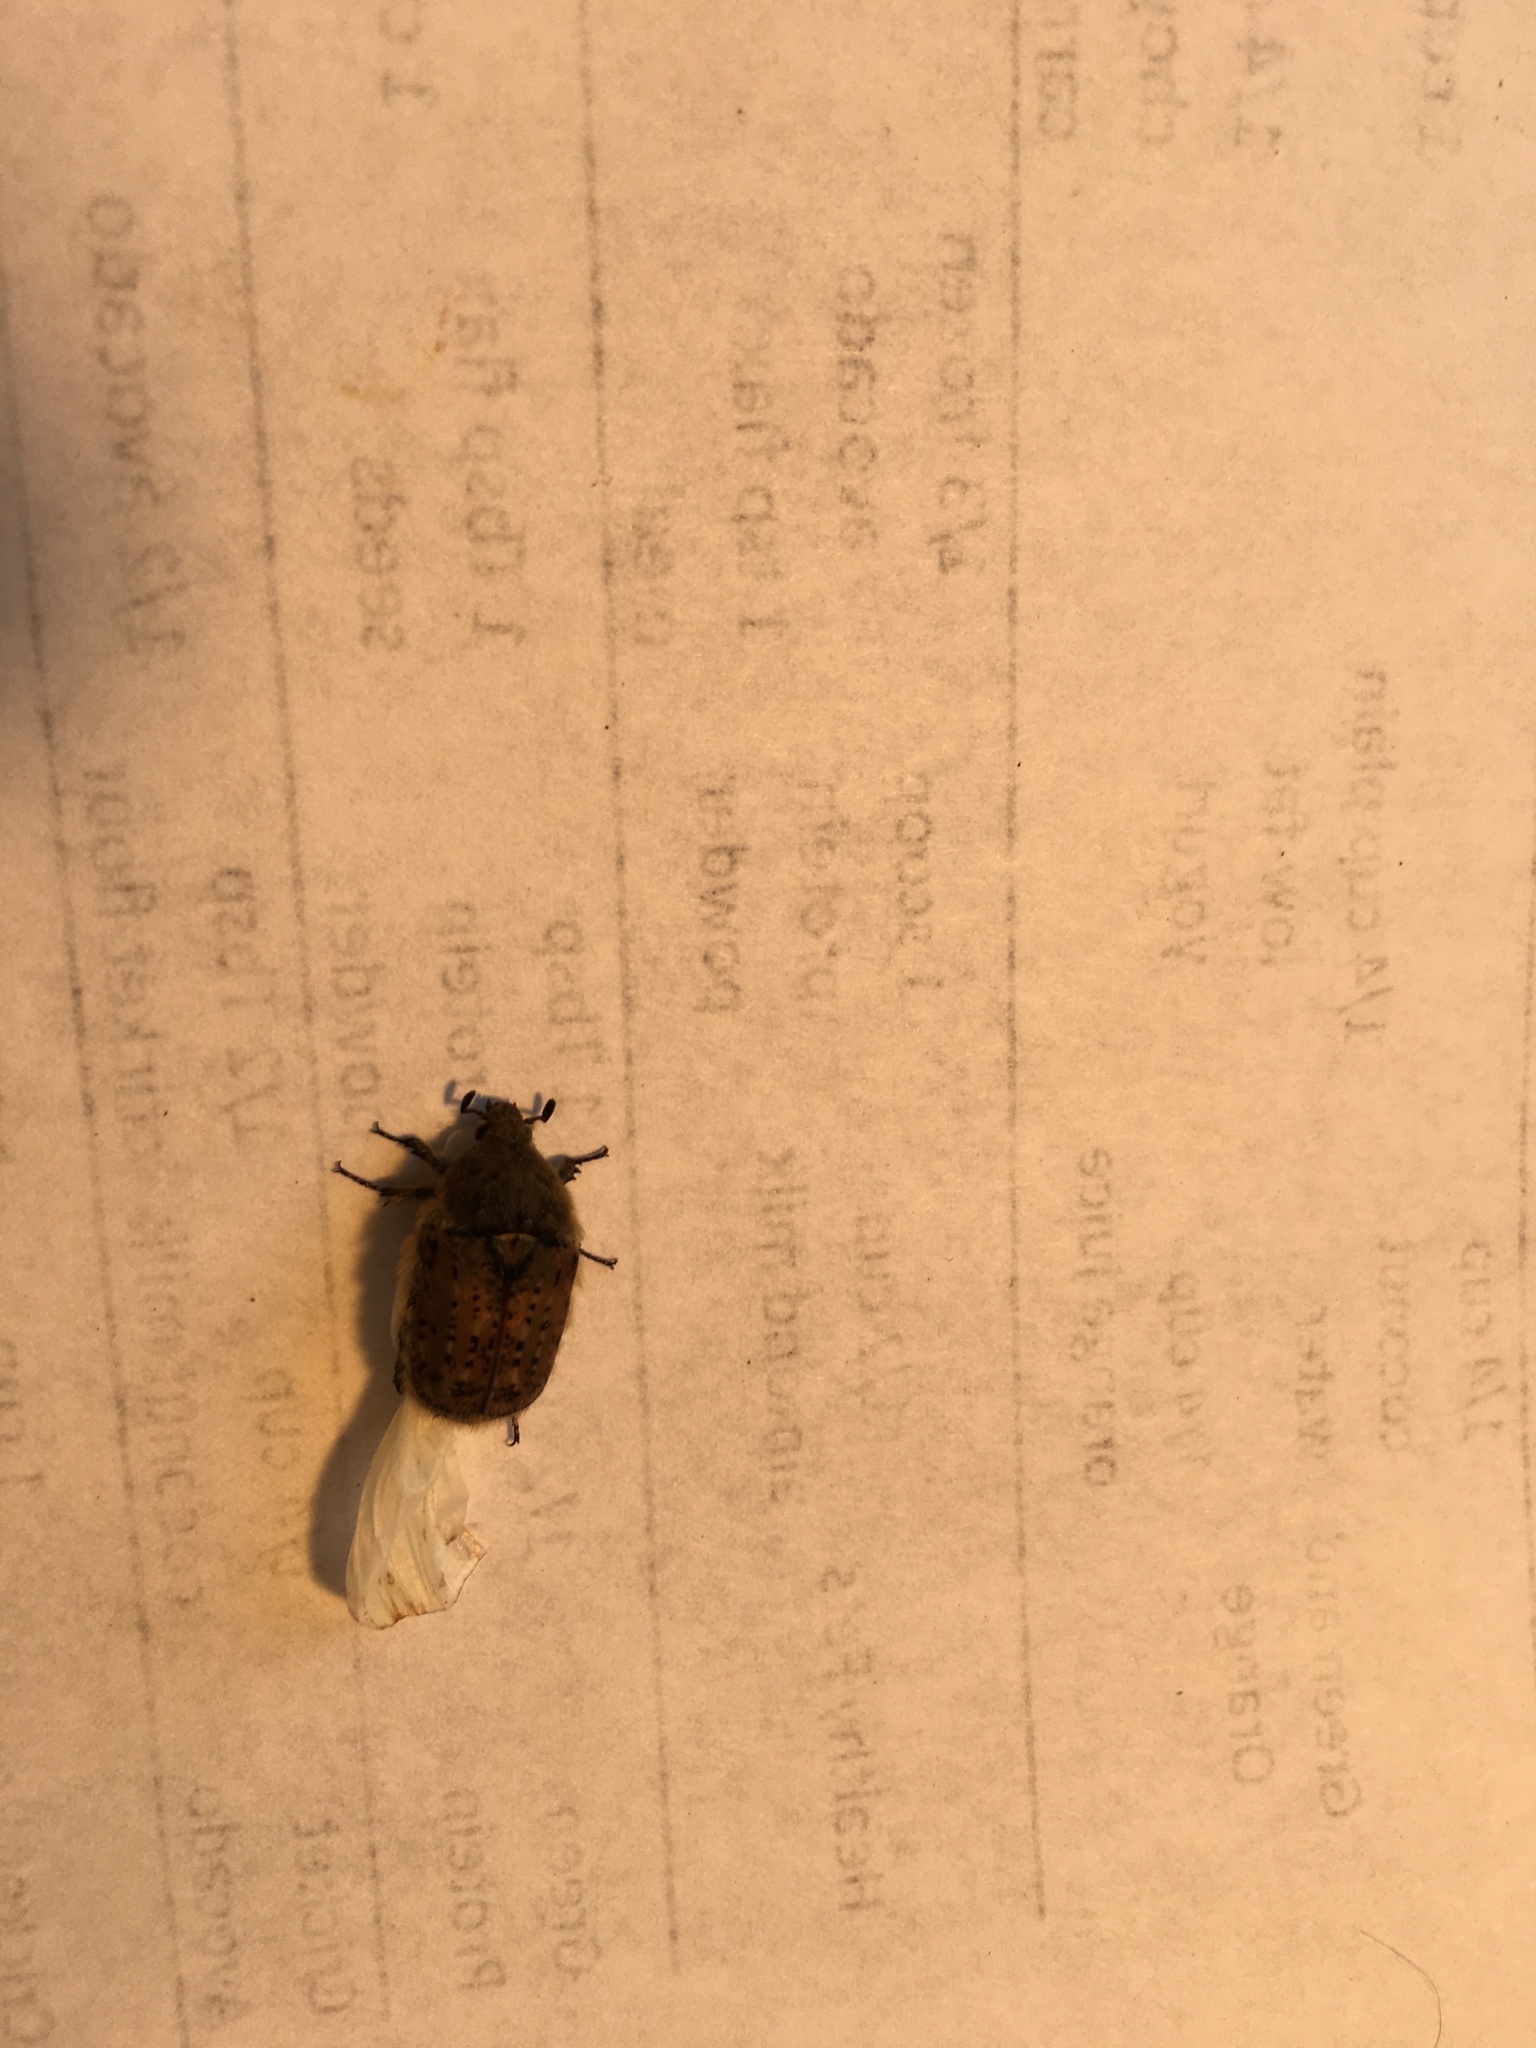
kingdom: Animalia
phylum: Arthropoda
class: Insecta
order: Coleoptera
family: Scarabaeidae
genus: Euphoria
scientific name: Euphoria inda
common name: Bumble flower beetle
